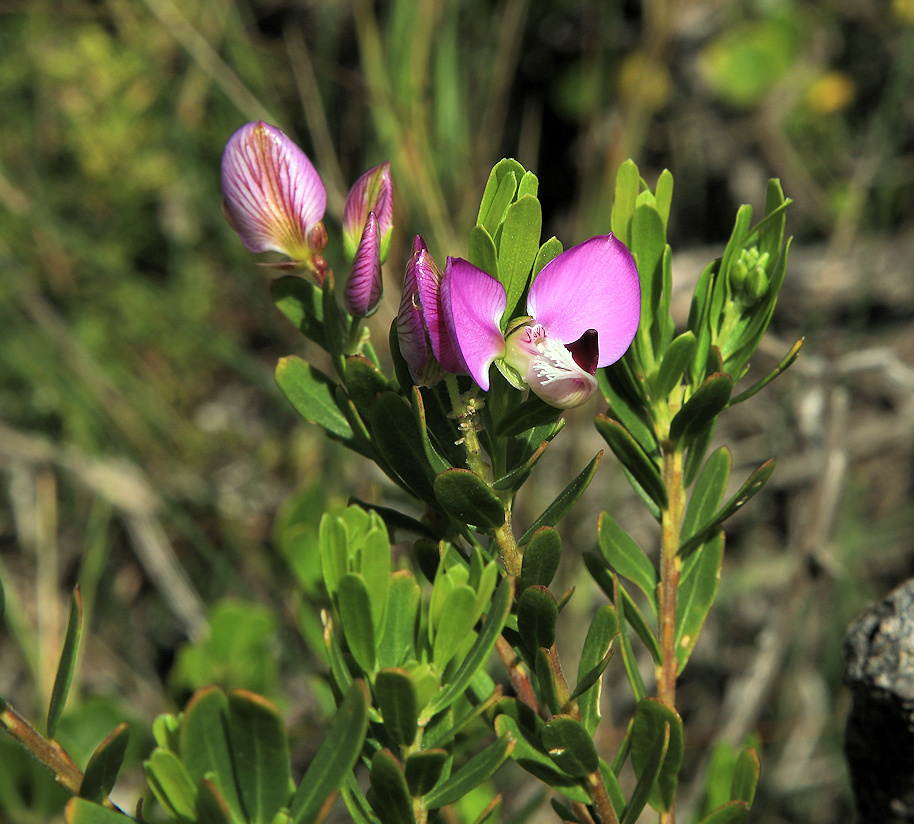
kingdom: Plantae
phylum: Tracheophyta
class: Magnoliopsida
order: Fabales
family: Polygalaceae
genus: Polygala
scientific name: Polygala myrtifolia
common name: Myrtle-leaf milkwort
